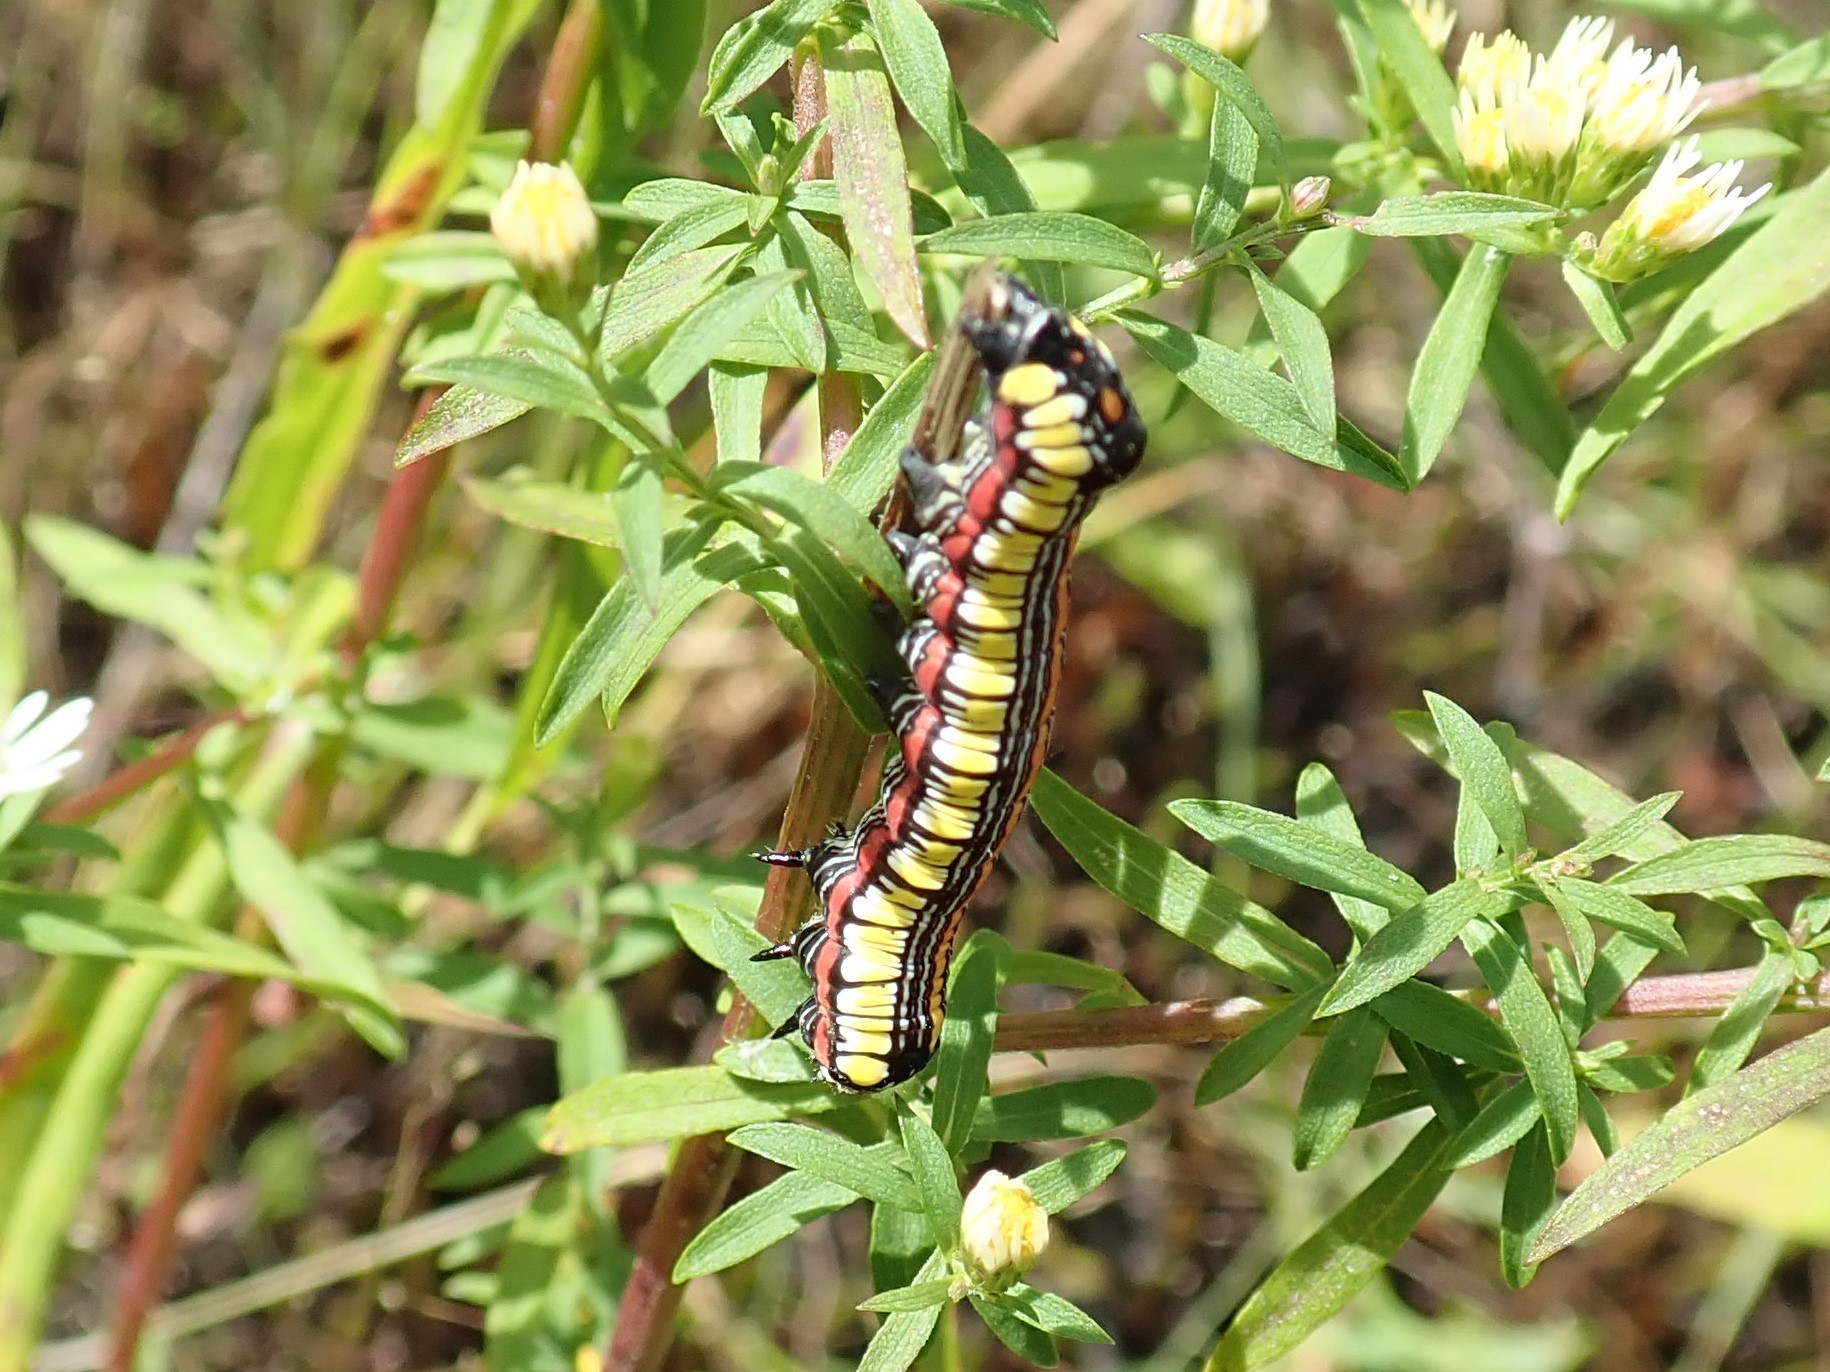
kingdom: Animalia
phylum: Arthropoda
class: Insecta
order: Lepidoptera
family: Noctuidae
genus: Cucullia
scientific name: Cucullia convexipennis
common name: Brown-hooded owlet
